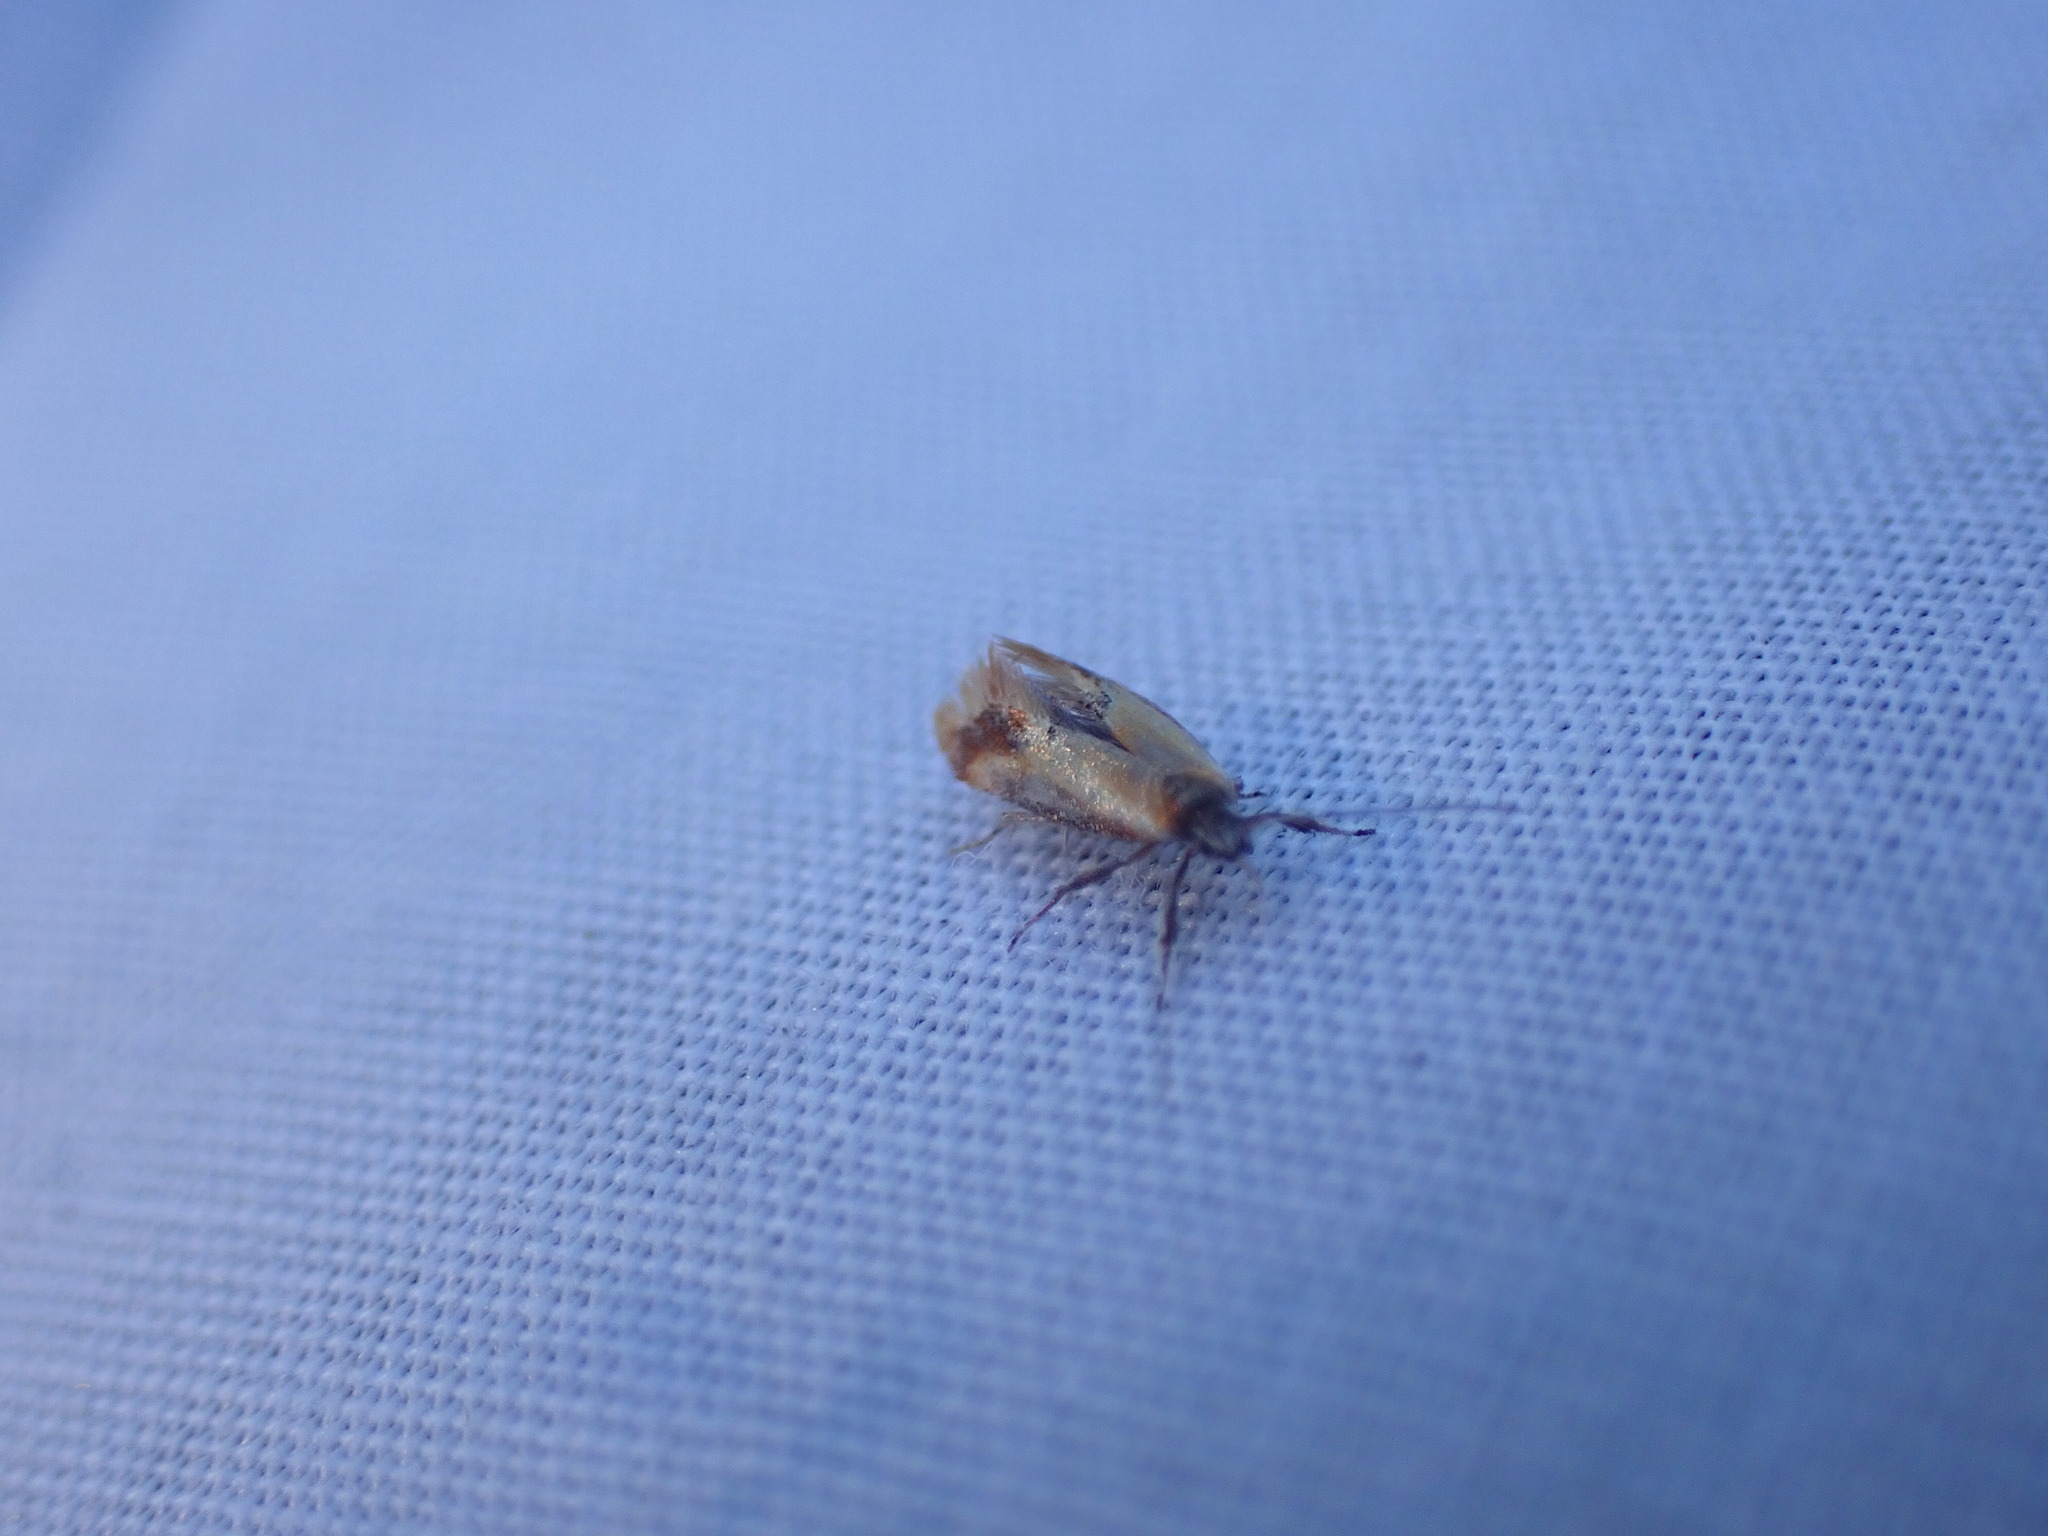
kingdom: Animalia
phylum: Arthropoda
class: Insecta
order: Lepidoptera
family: Oecophoridae
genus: Batia
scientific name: Batia lunaris
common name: Moth
